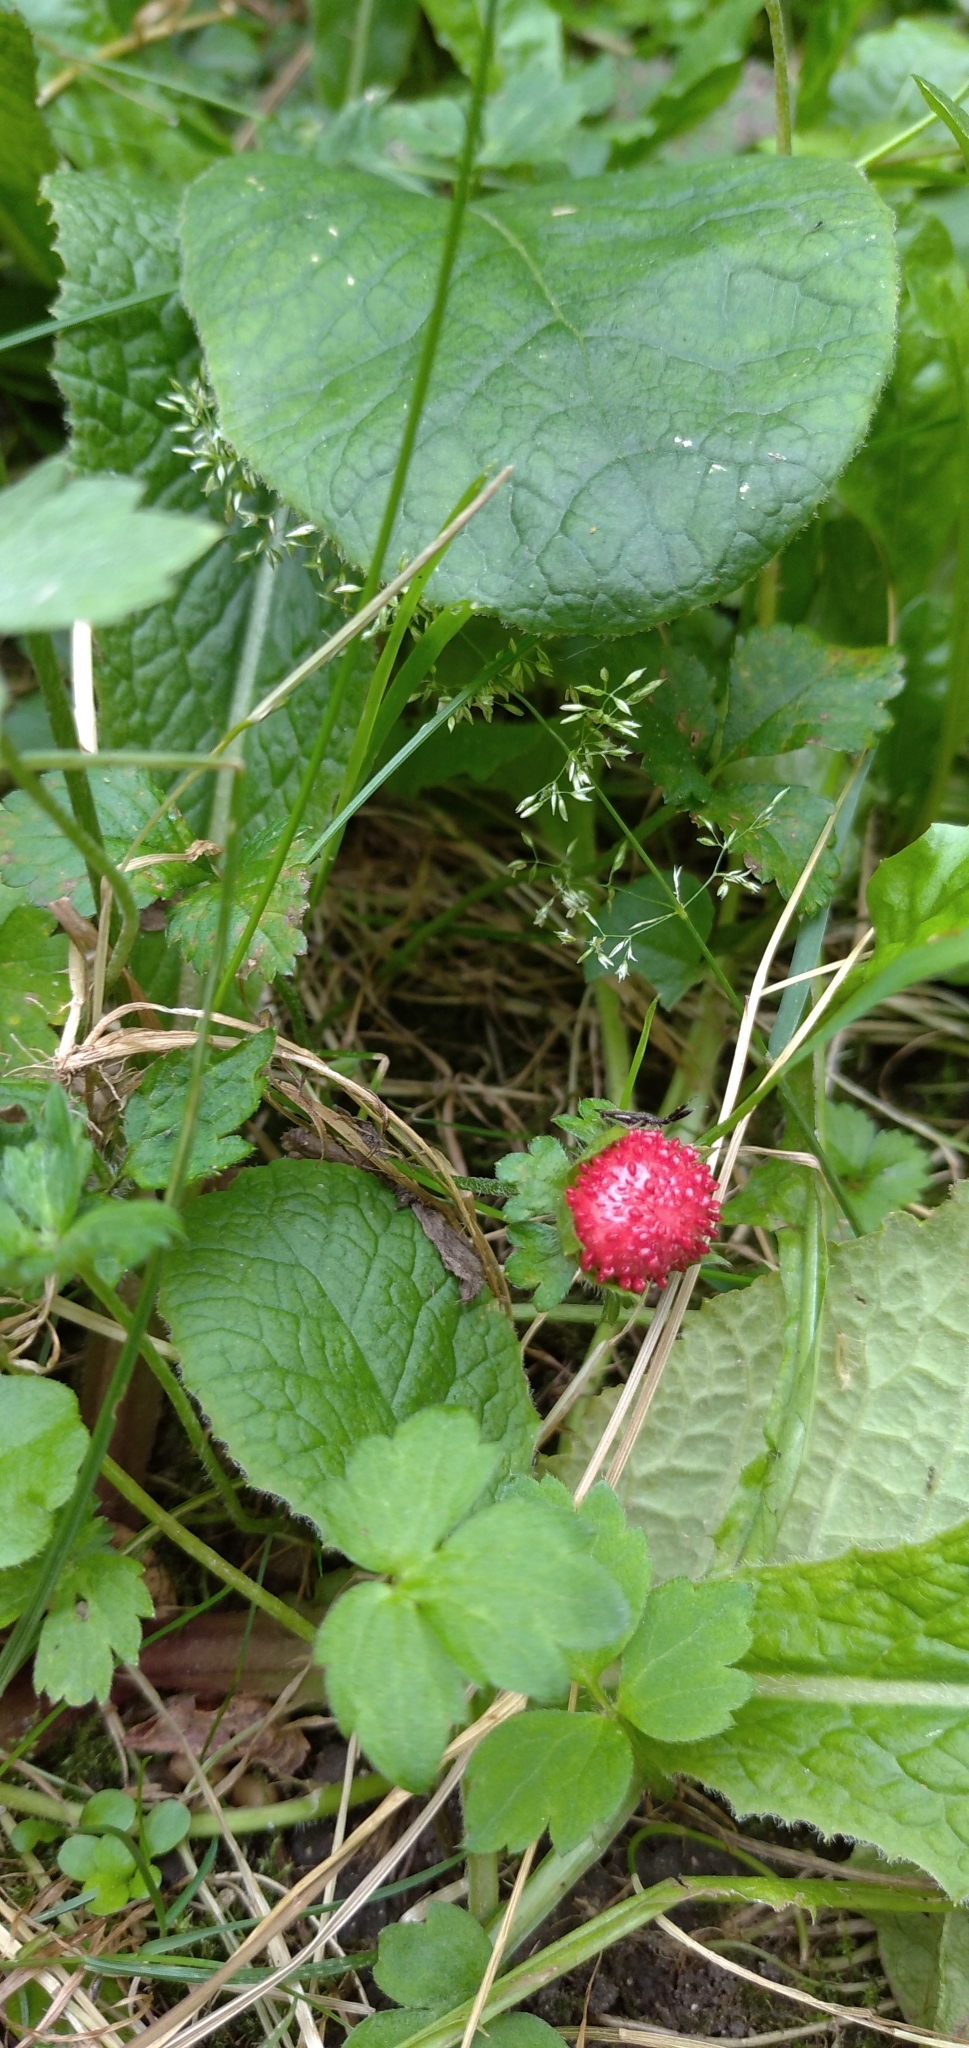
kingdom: Plantae
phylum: Tracheophyta
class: Magnoliopsida
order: Rosales
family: Rosaceae
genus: Potentilla
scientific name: Potentilla indica
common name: Yellow-flowered strawberry
